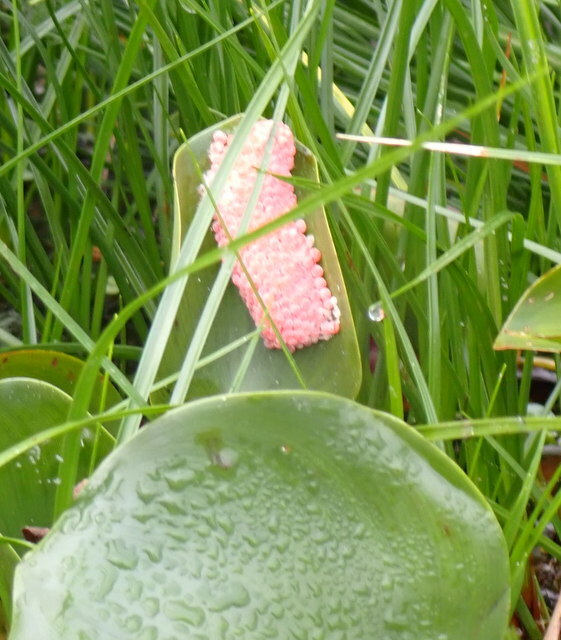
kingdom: Animalia
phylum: Mollusca
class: Gastropoda
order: Architaenioglossa
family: Ampullariidae
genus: Pomacea
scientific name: Pomacea maculata
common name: Giant applesnail
